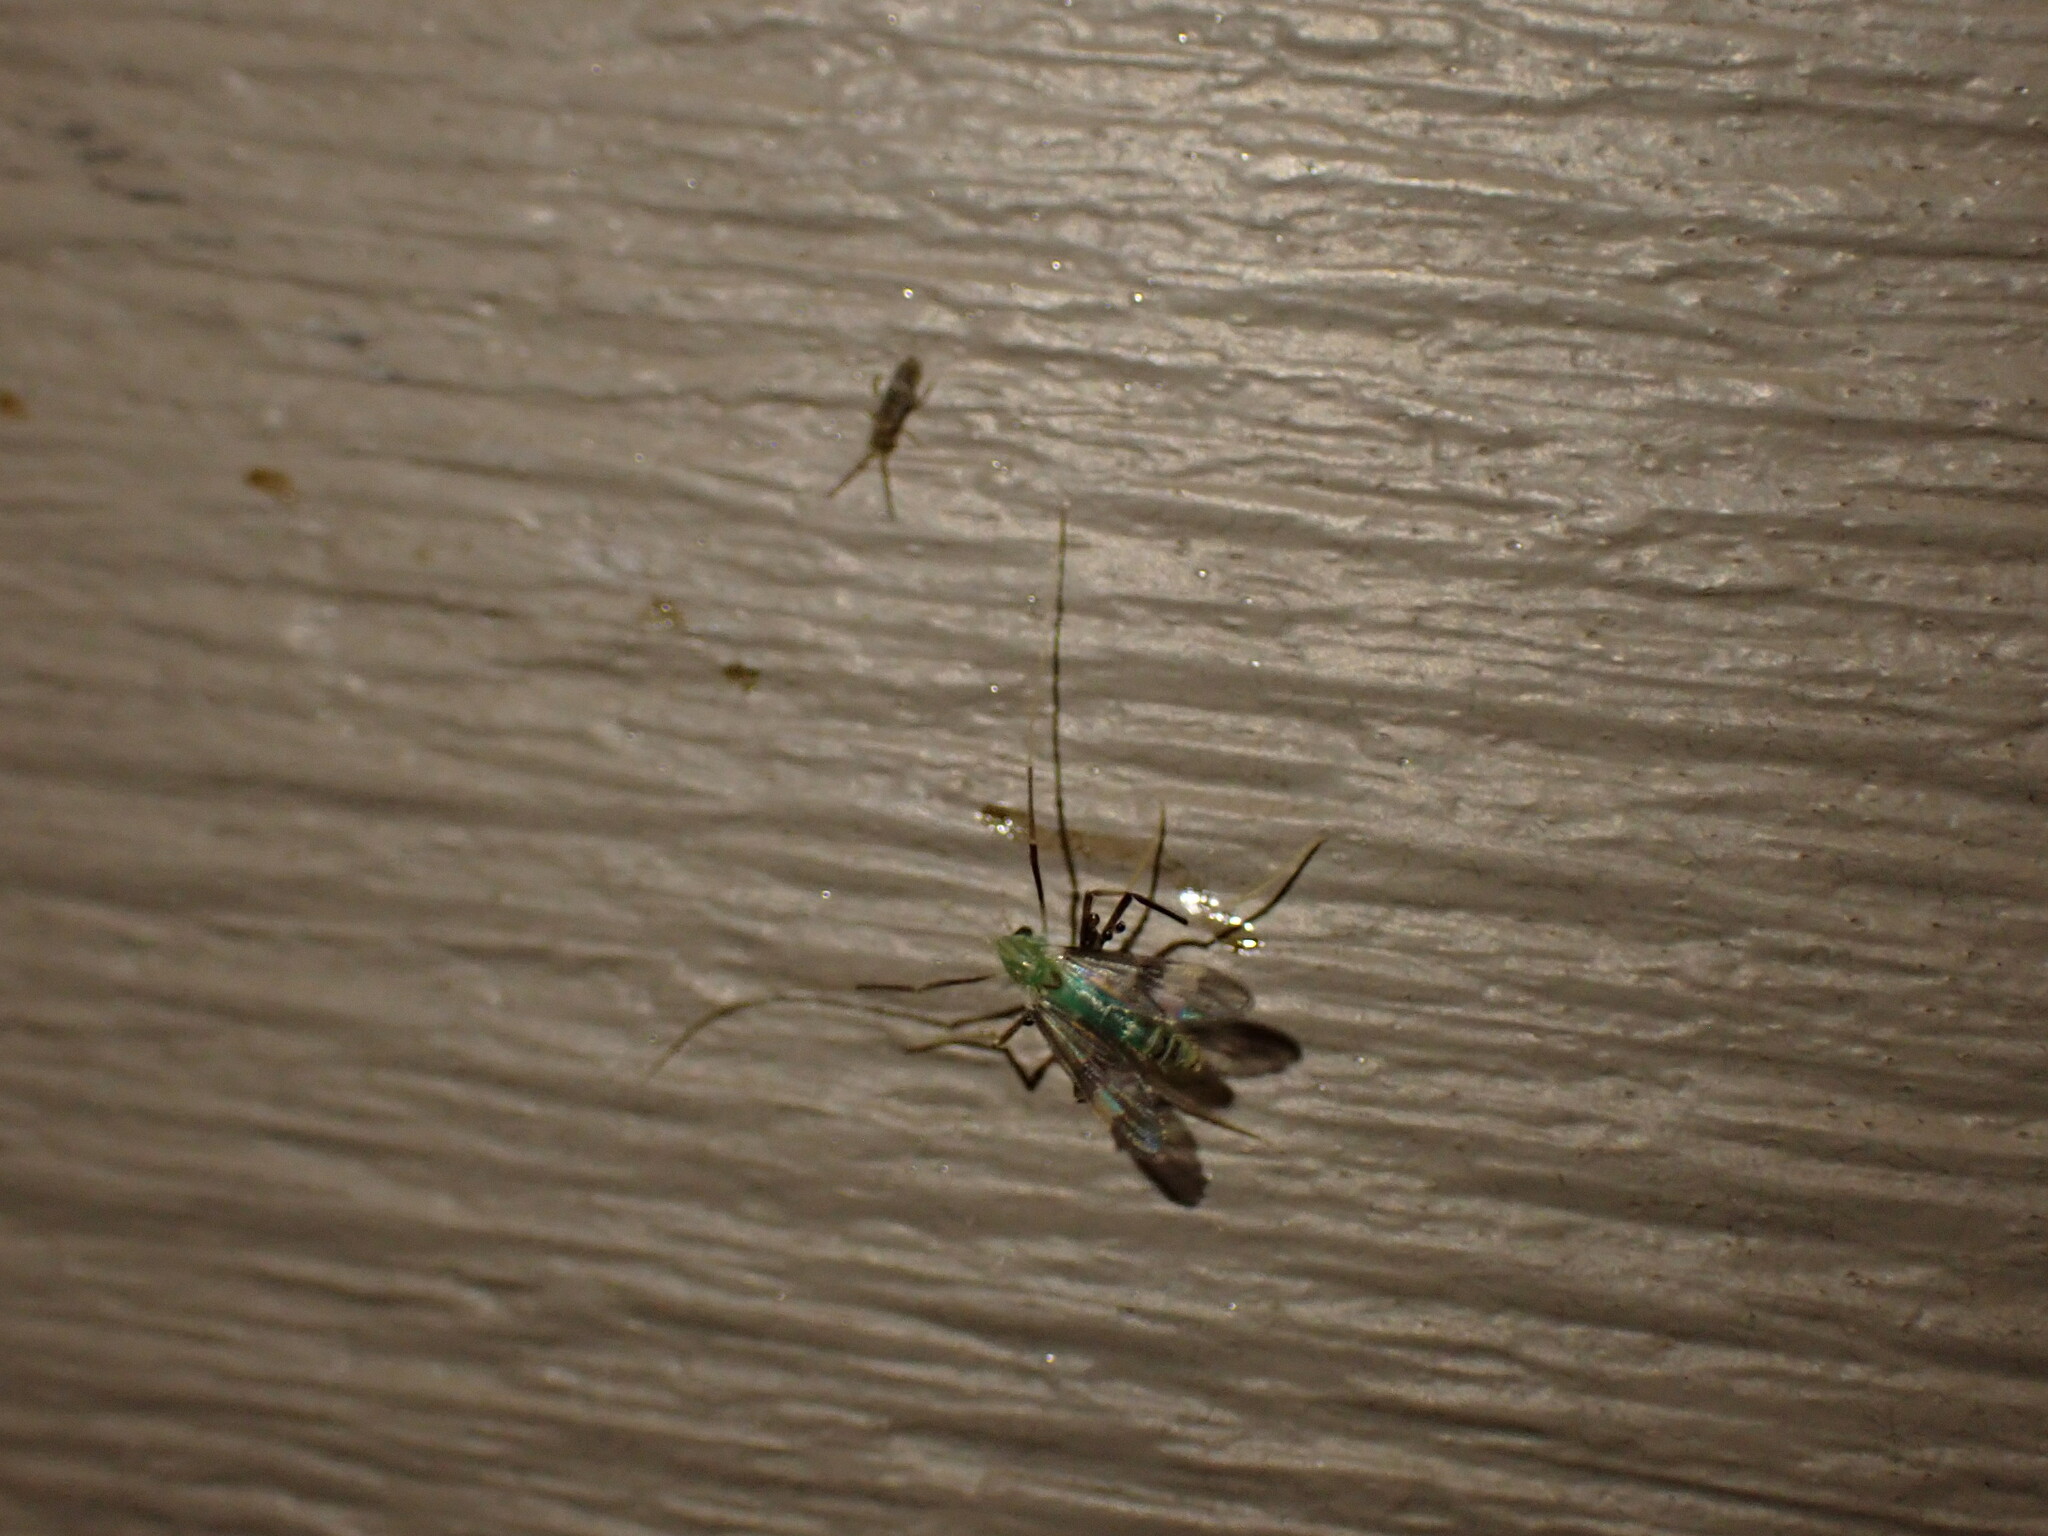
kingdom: Animalia
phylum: Arthropoda
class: Insecta
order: Diptera
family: Chironomidae
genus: Stenochironomus
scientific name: Stenochironomus hilaris
